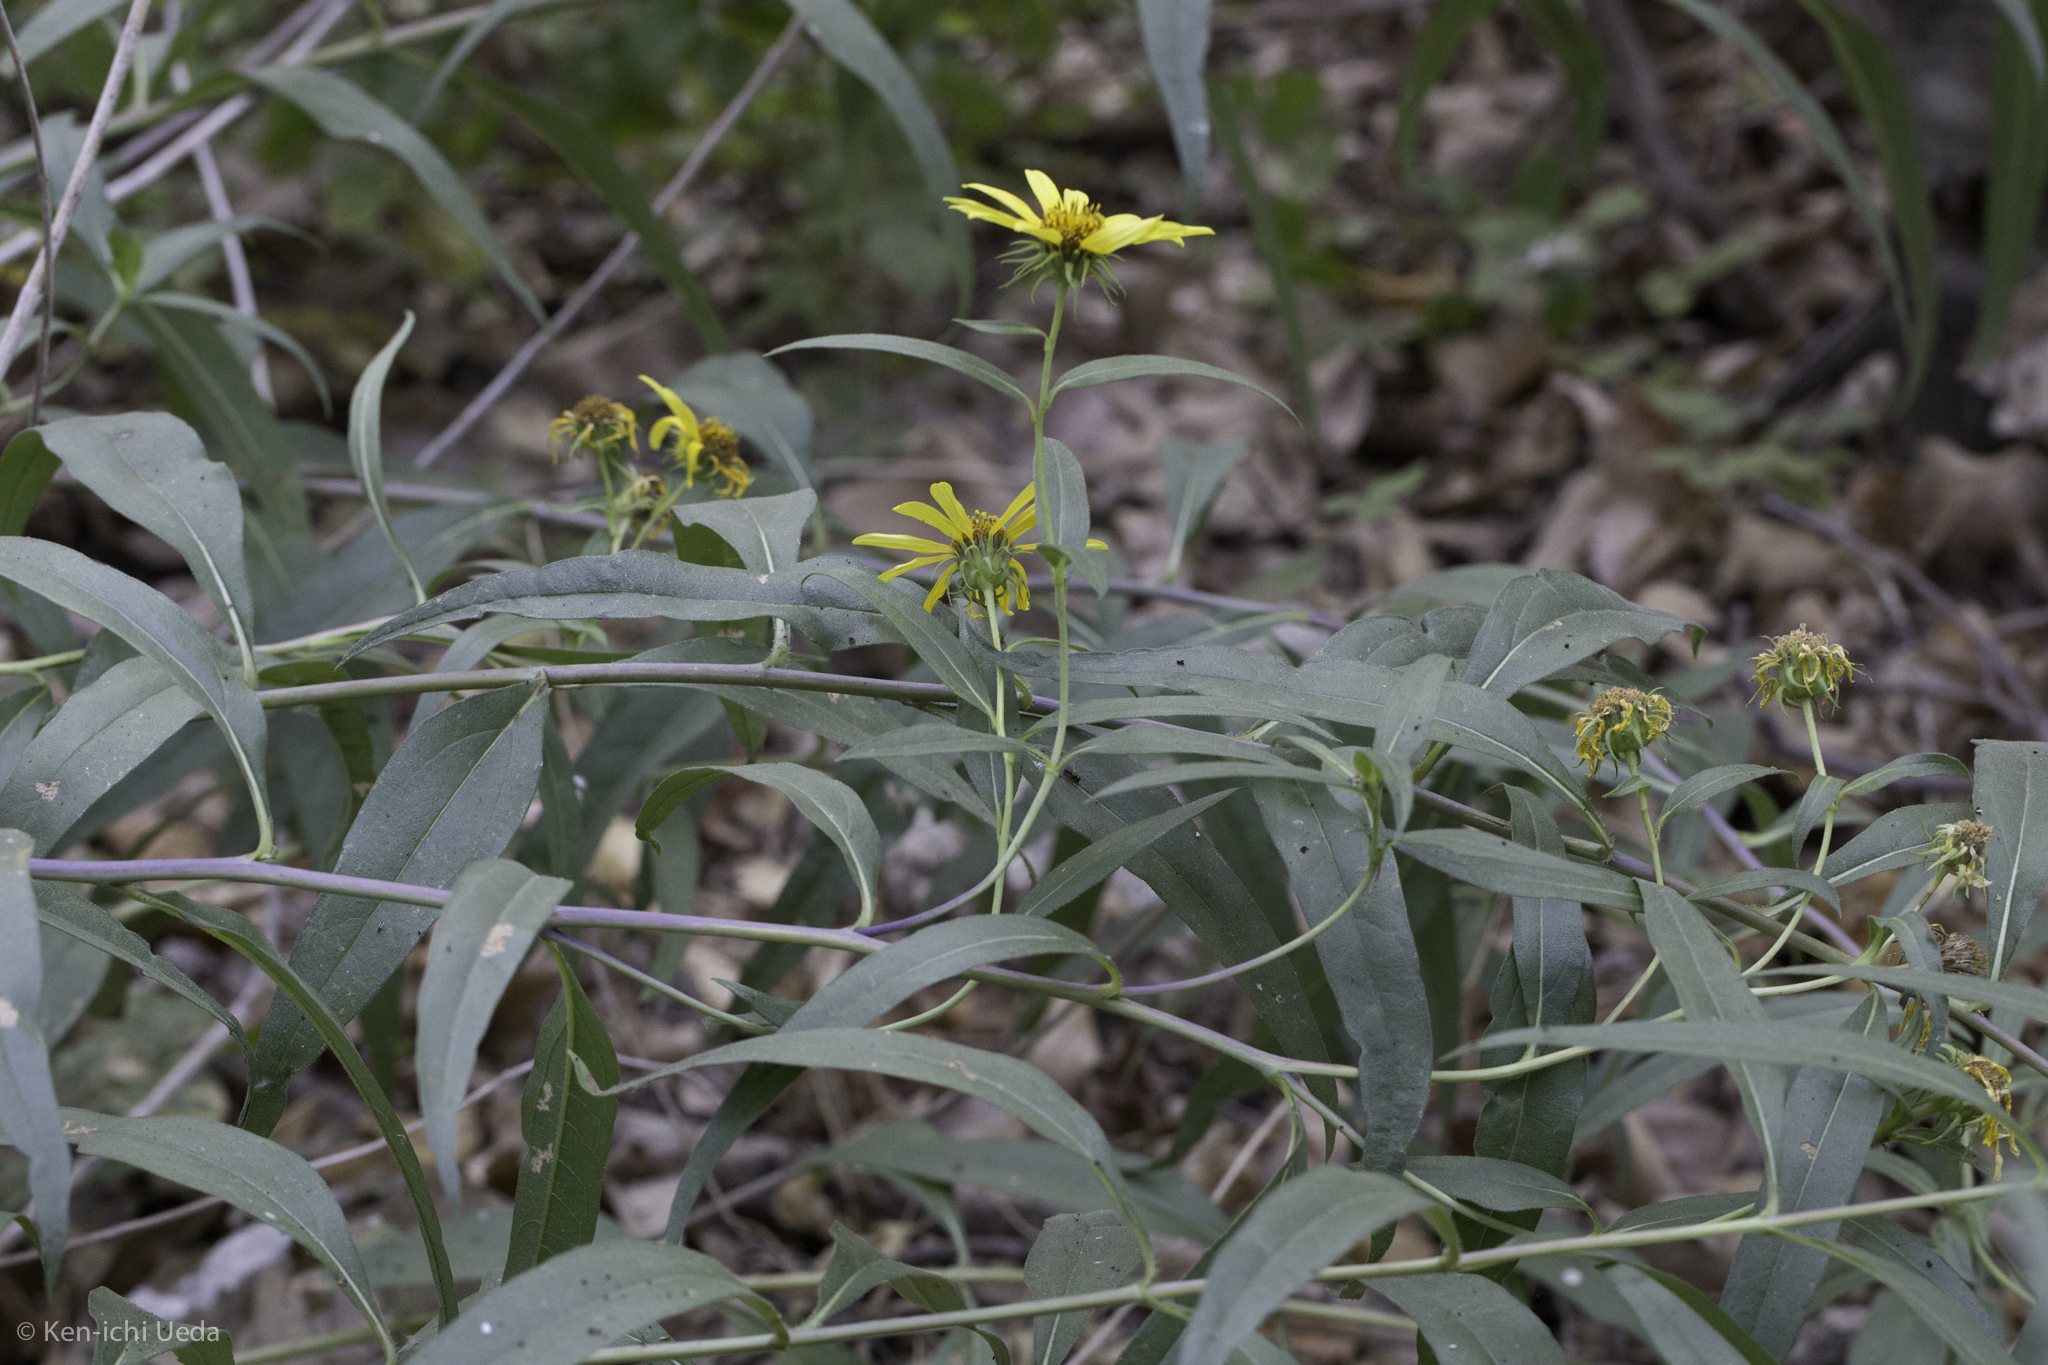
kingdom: Plantae
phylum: Tracheophyta
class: Magnoliopsida
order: Asterales
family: Asteraceae
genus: Helianthus
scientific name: Helianthus californicus
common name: California sunflower
